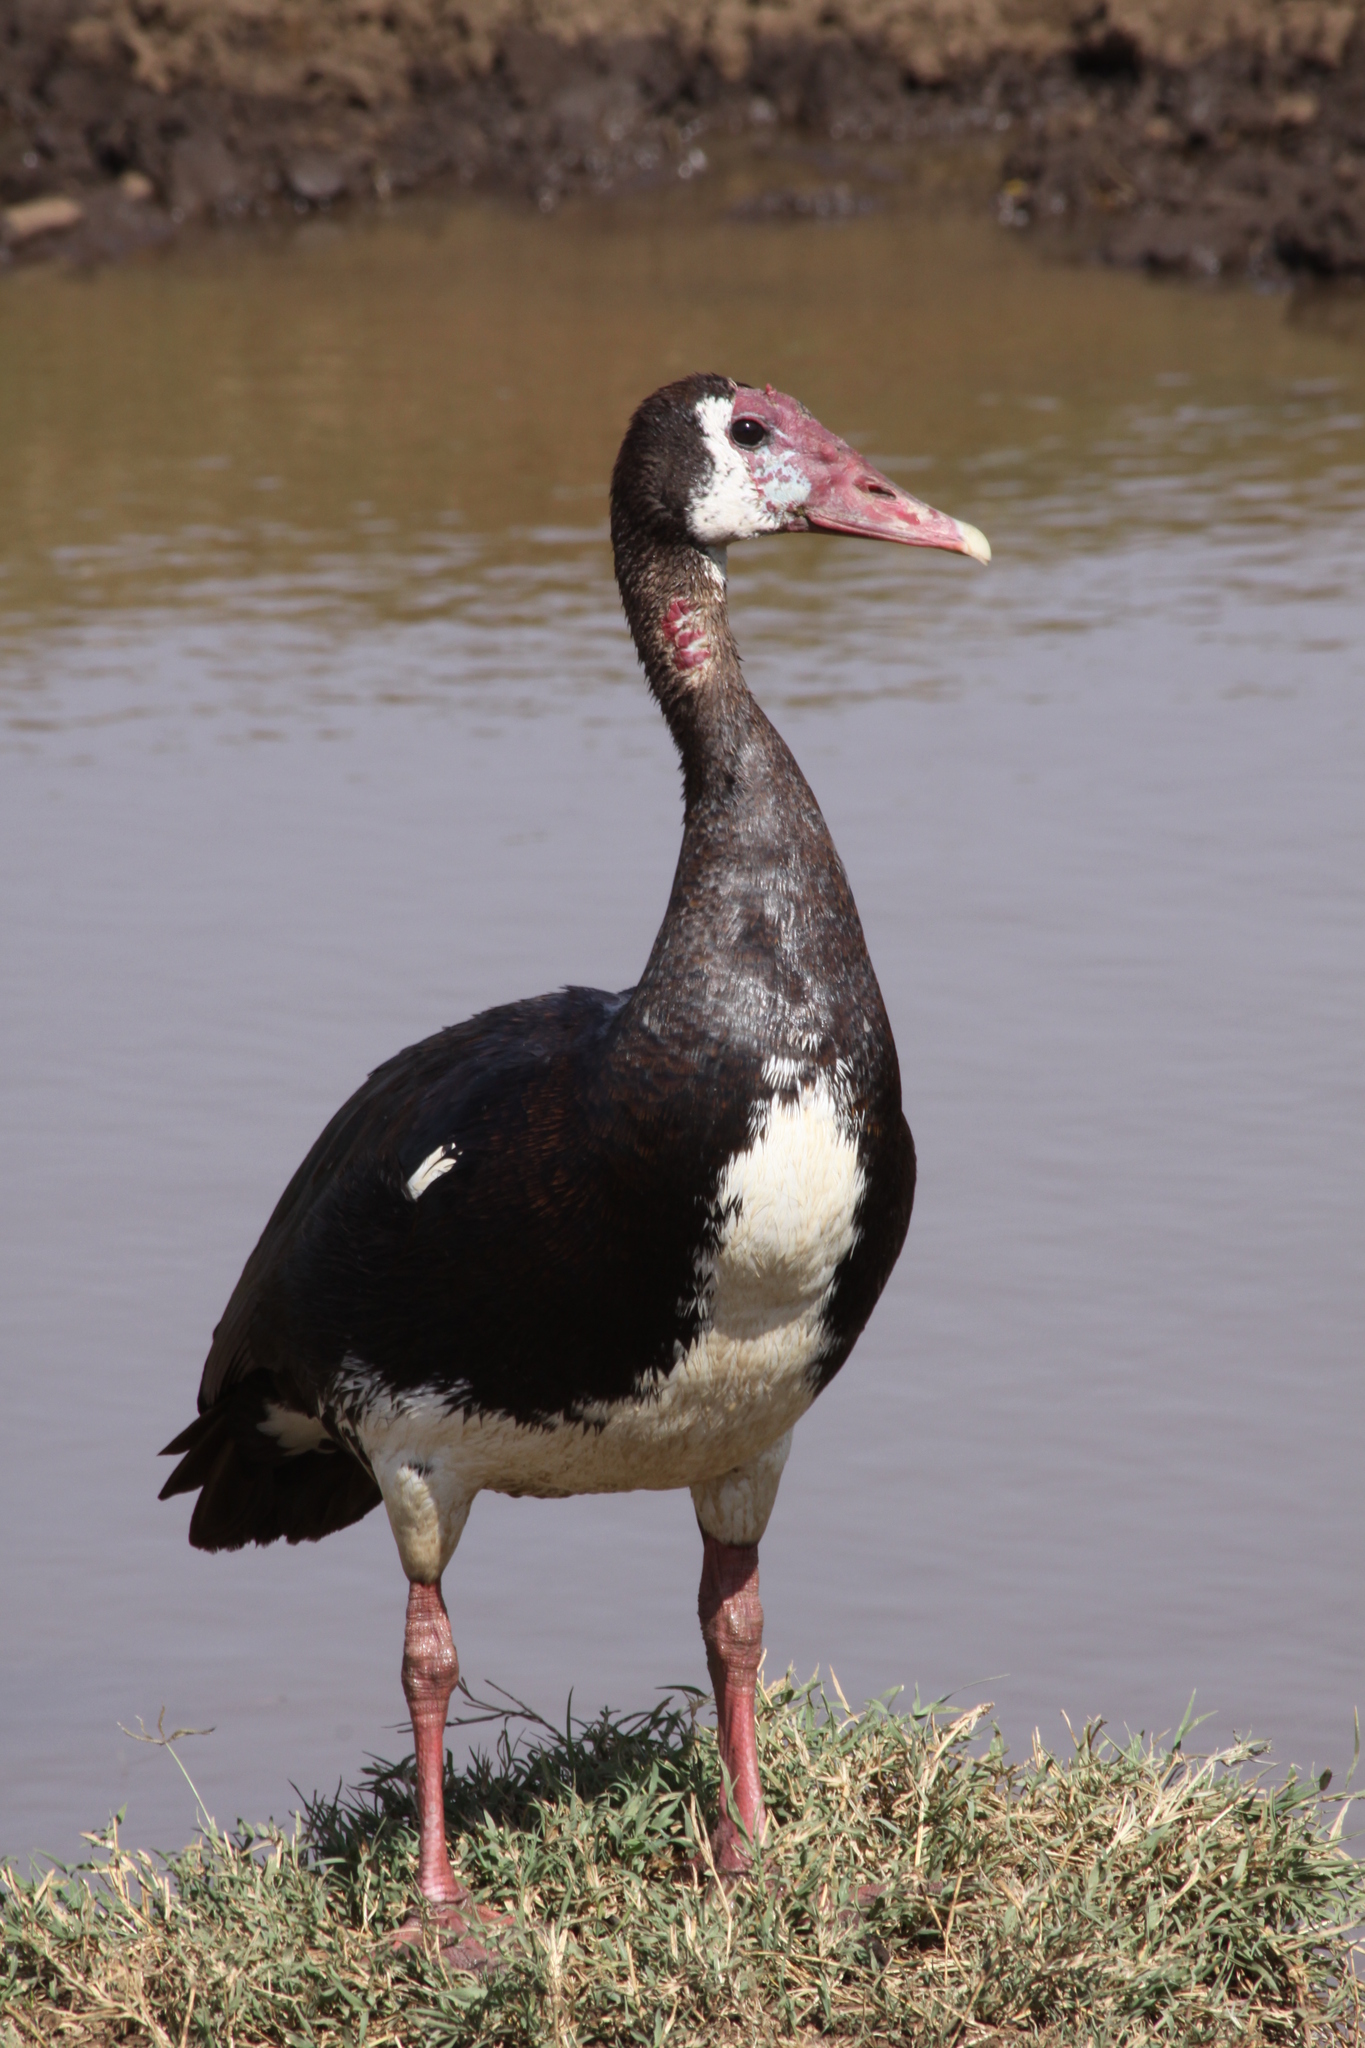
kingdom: Animalia
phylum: Chordata
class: Aves
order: Anseriformes
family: Anatidae
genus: Plectropterus
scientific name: Plectropterus gambensis
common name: Spur-winged goose
